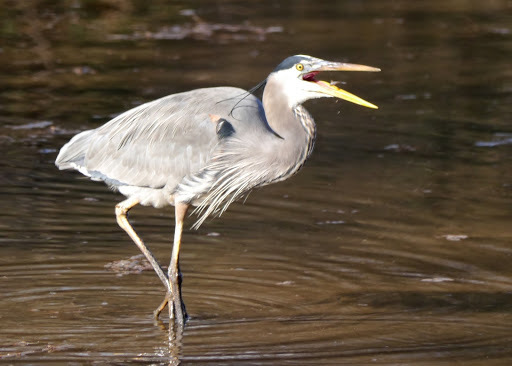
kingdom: Animalia
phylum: Chordata
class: Aves
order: Pelecaniformes
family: Ardeidae
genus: Ardea
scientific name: Ardea herodias
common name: Great blue heron
